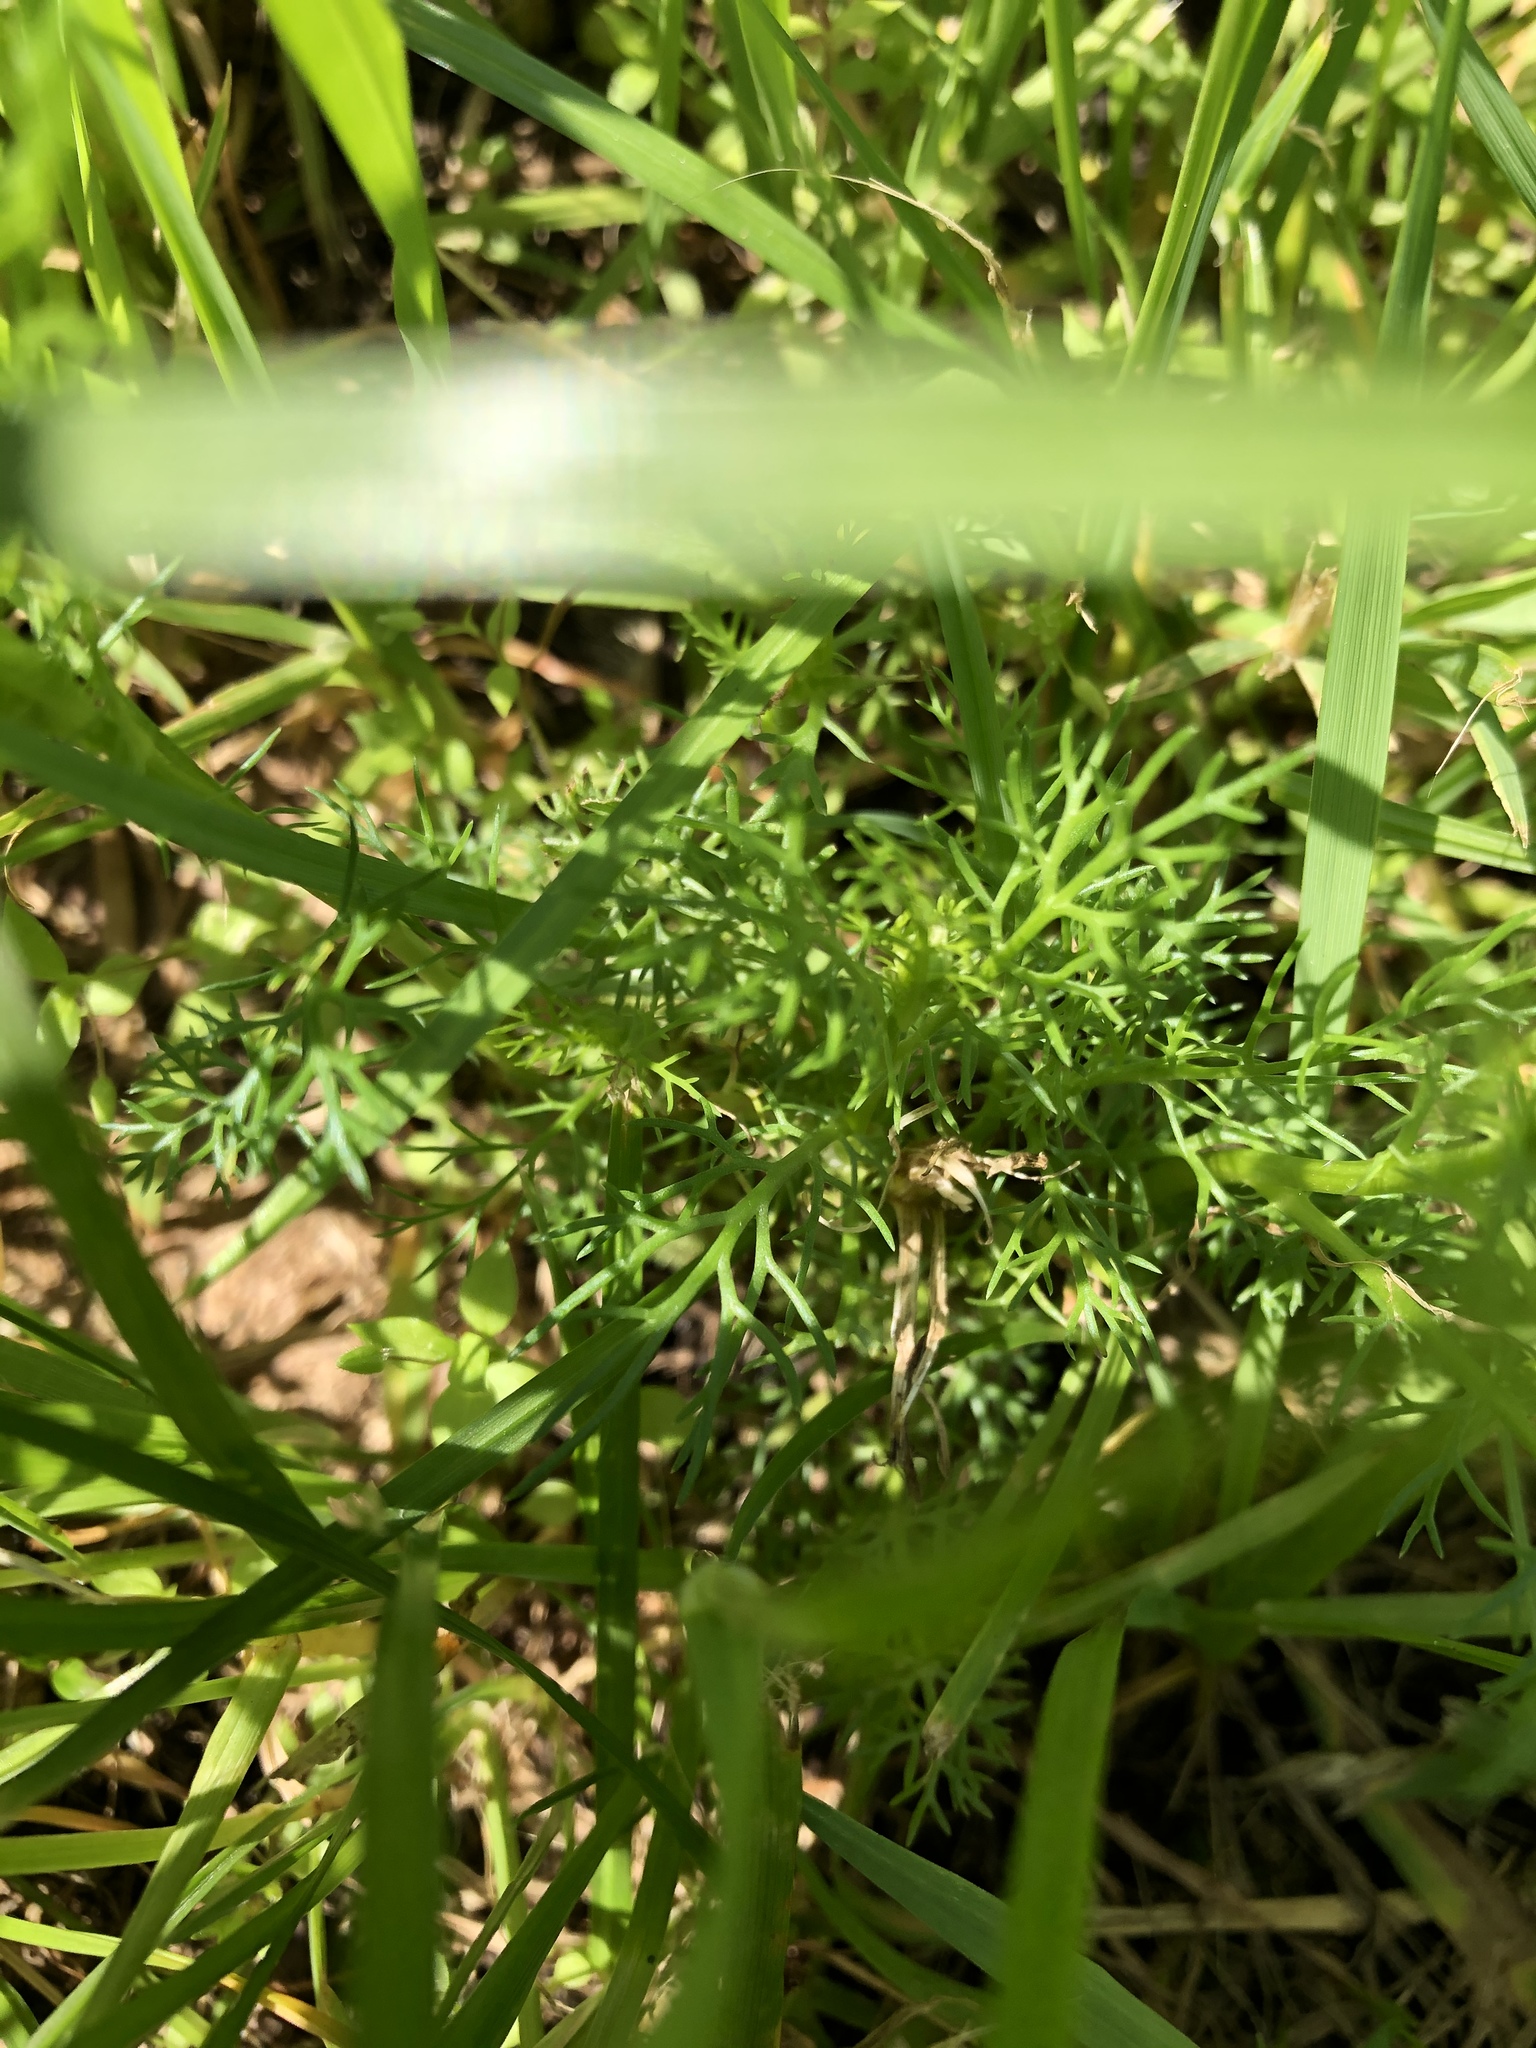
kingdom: Plantae
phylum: Tracheophyta
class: Magnoliopsida
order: Asterales
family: Asteraceae
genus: Tripleurospermum
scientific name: Tripleurospermum inodorum
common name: Scentless mayweed
